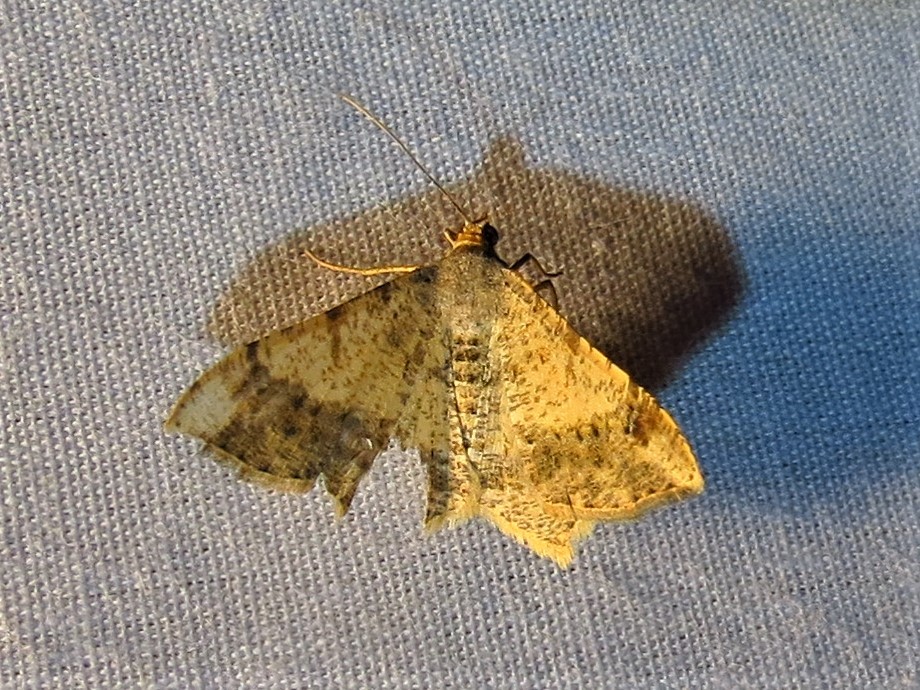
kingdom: Animalia
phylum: Arthropoda
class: Insecta
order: Lepidoptera
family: Geometridae
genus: Macaria
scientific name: Macaria abydata
